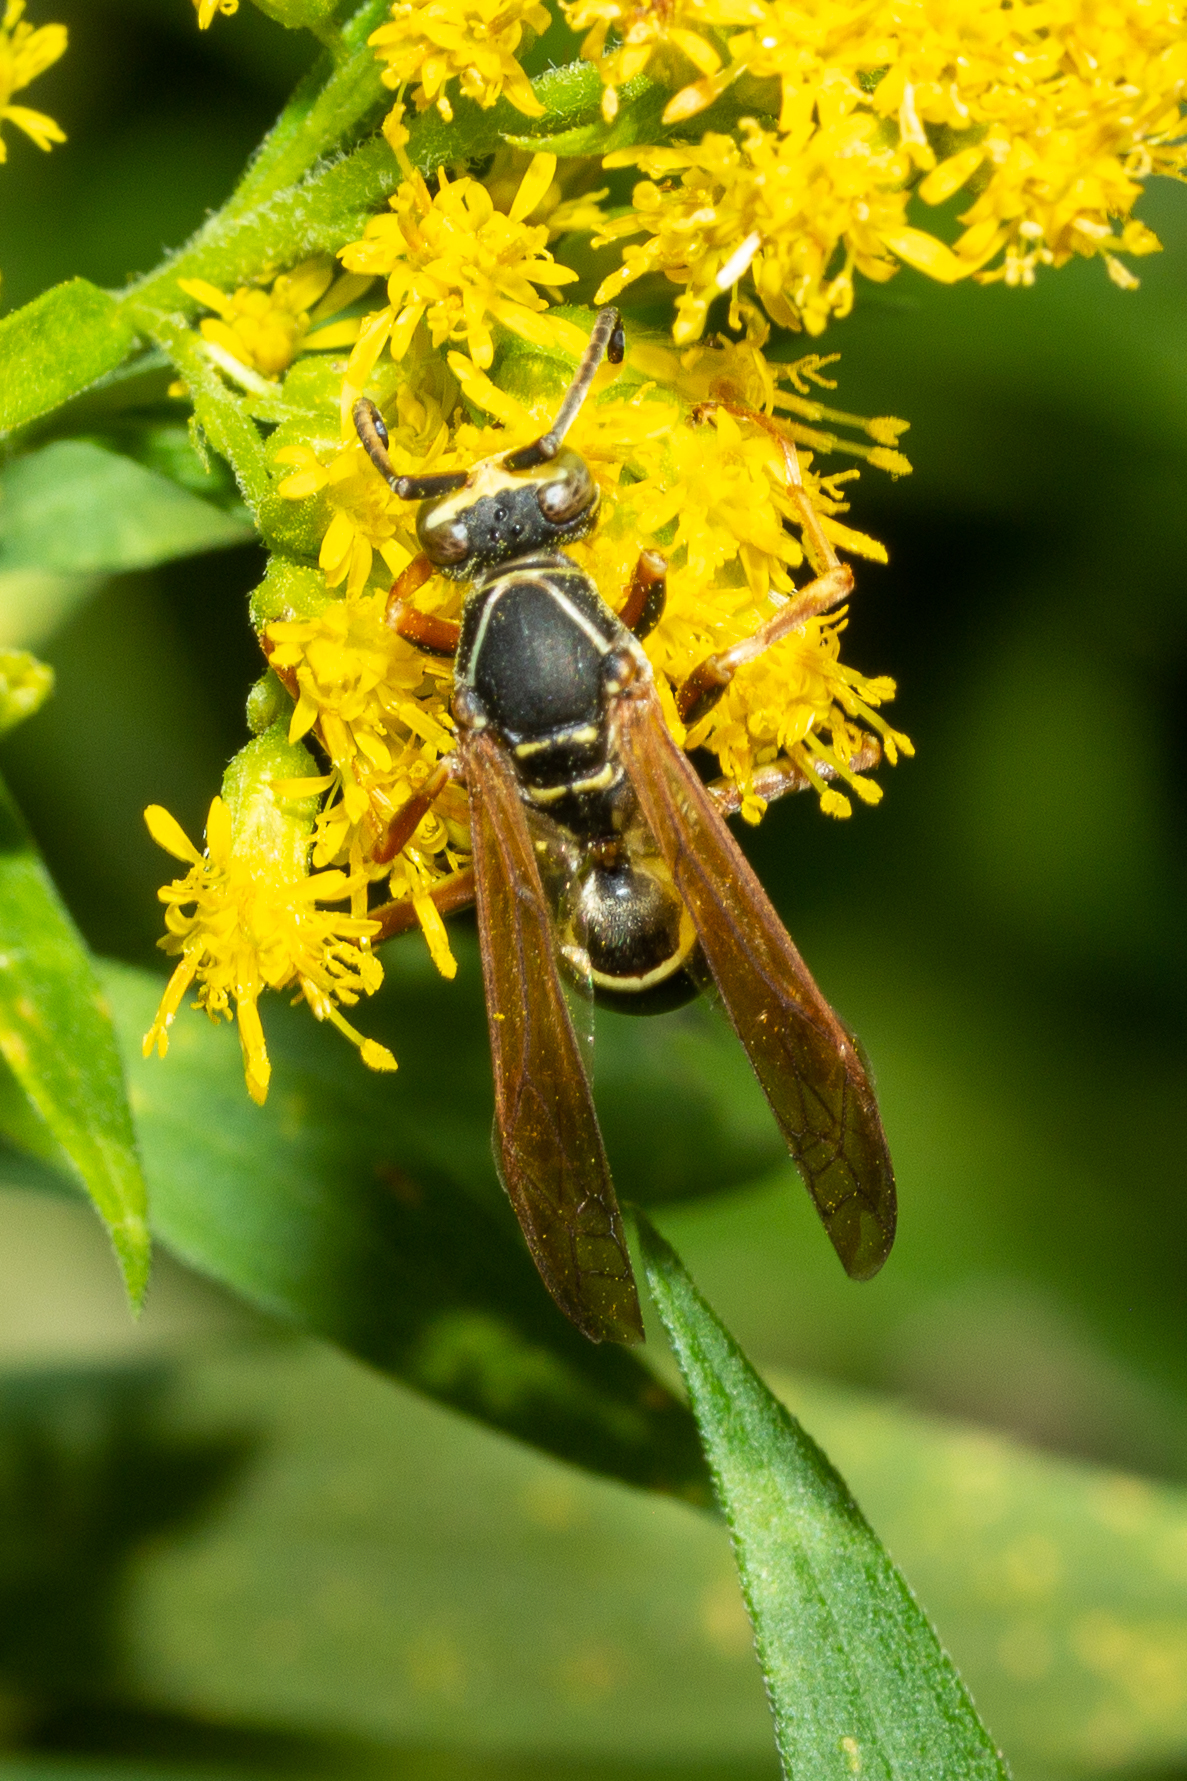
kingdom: Animalia
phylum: Arthropoda
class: Insecta
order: Hymenoptera
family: Eumenidae
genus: Polistes
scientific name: Polistes fuscatus
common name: Dark paper wasp
